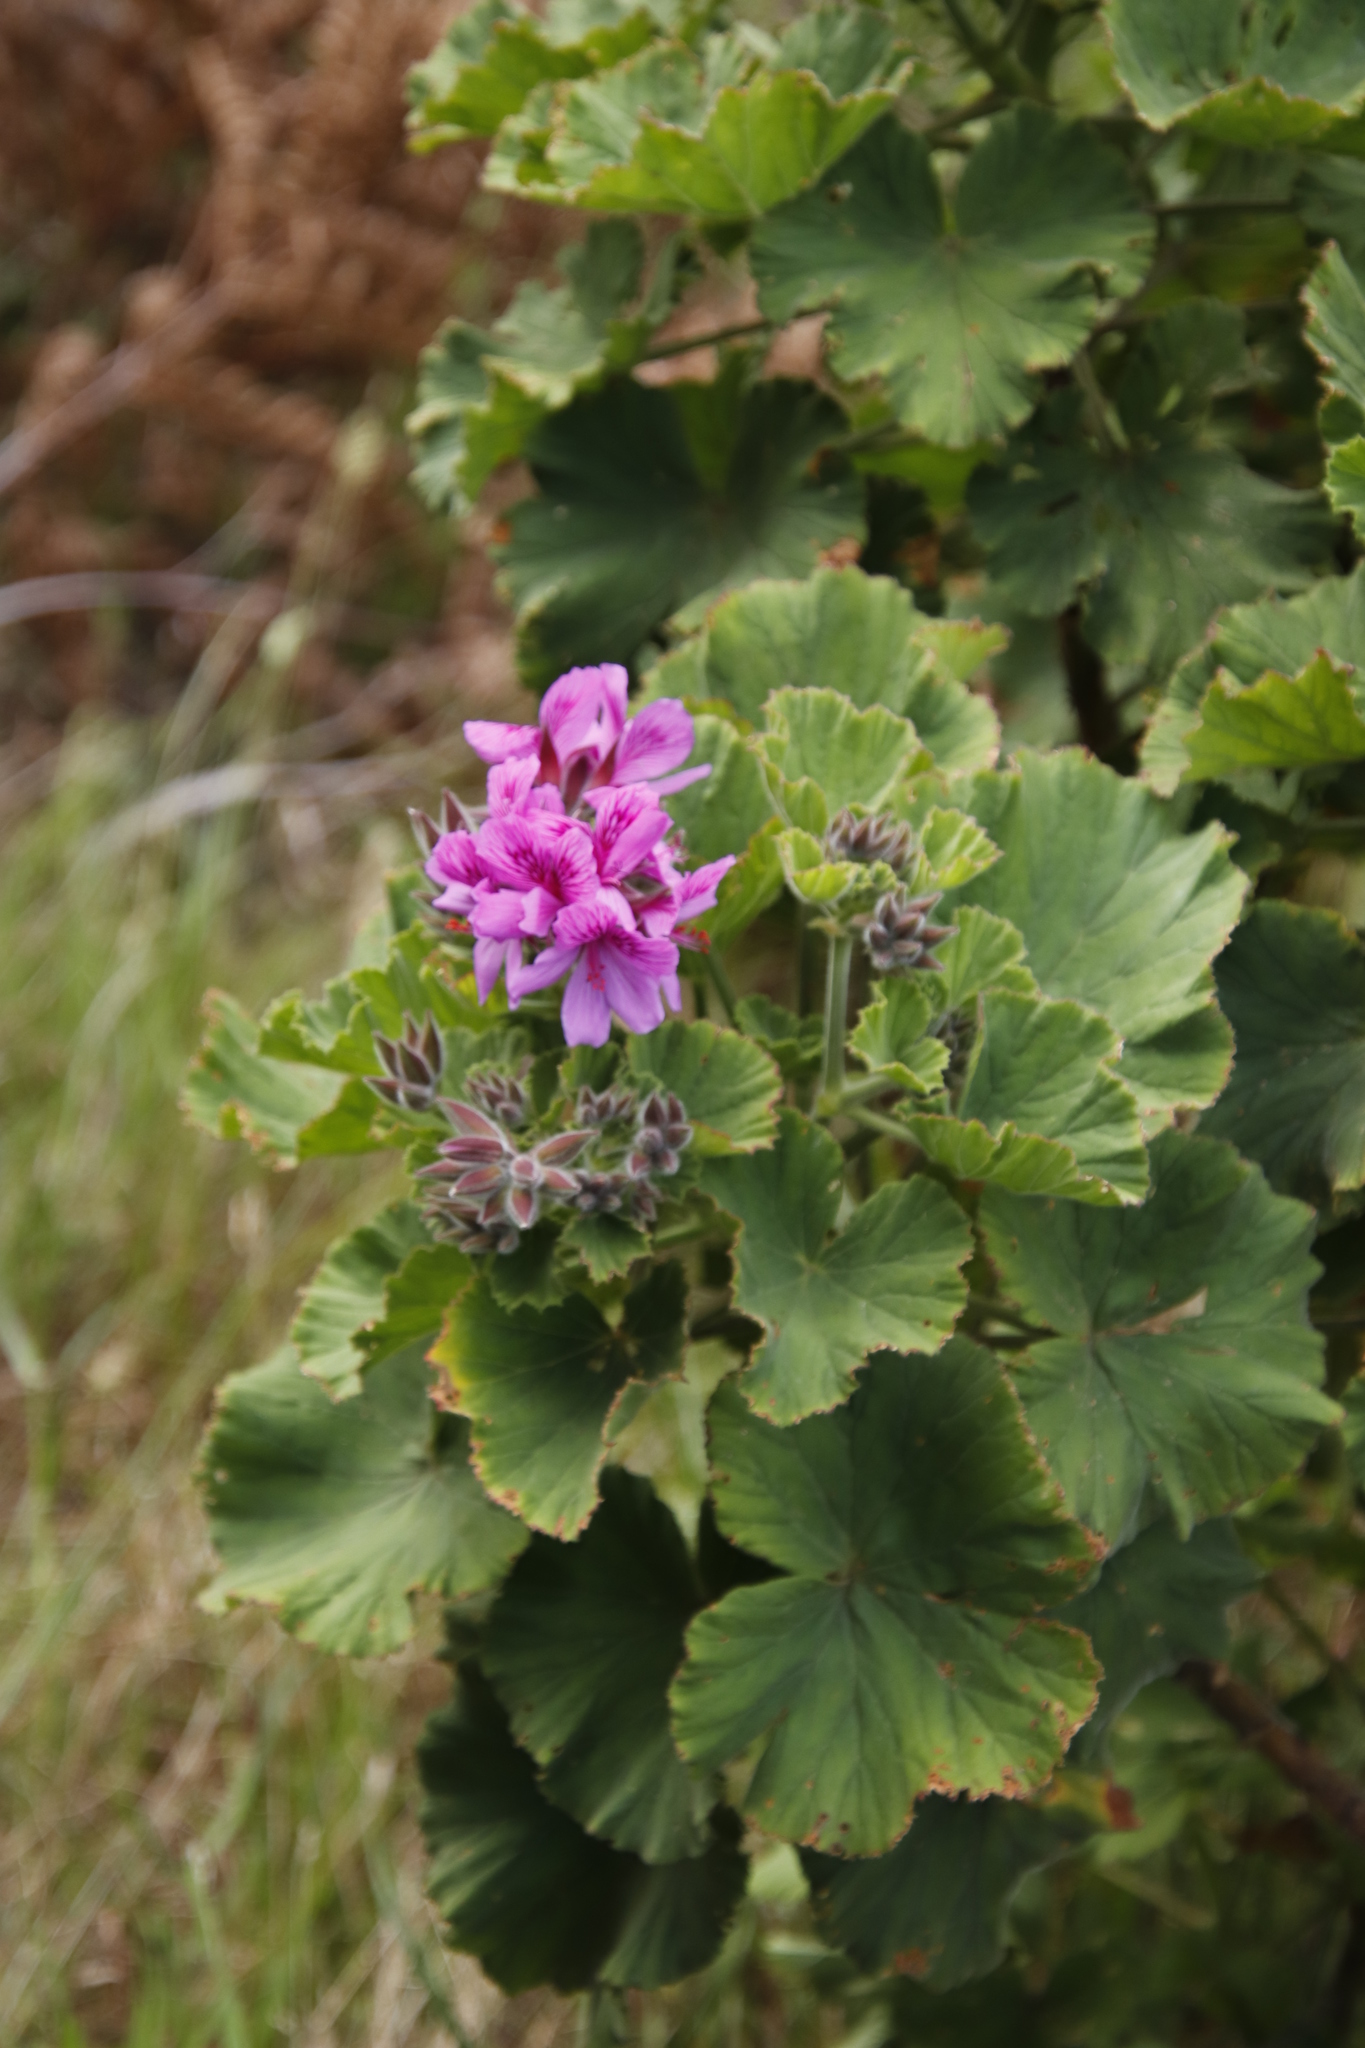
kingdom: Plantae
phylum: Tracheophyta
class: Magnoliopsida
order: Geraniales
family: Geraniaceae
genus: Pelargonium
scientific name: Pelargonium cucullatum
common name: Tree pelargonium
